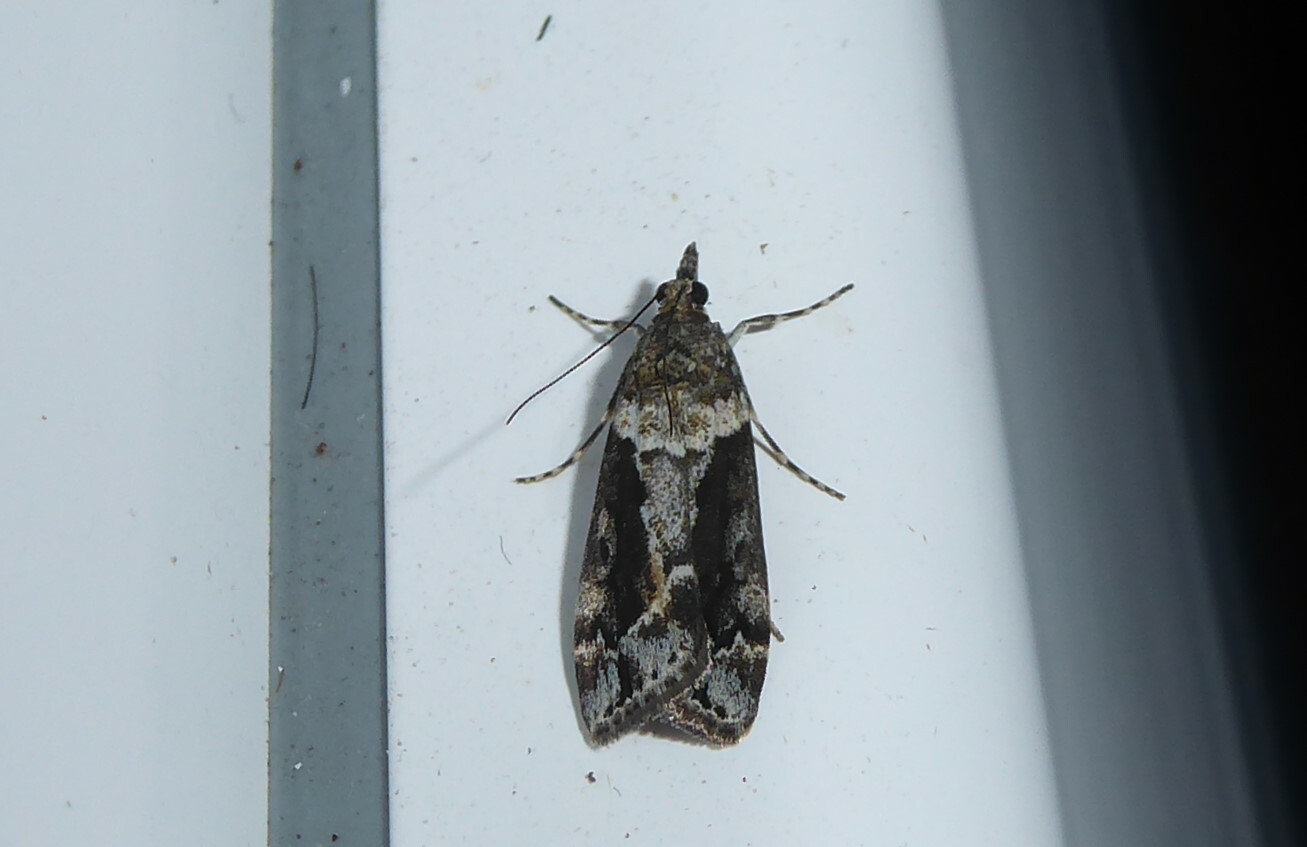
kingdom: Animalia
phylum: Arthropoda
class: Insecta
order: Lepidoptera
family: Crambidae
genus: Eudonia
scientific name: Eudonia submarginalis
